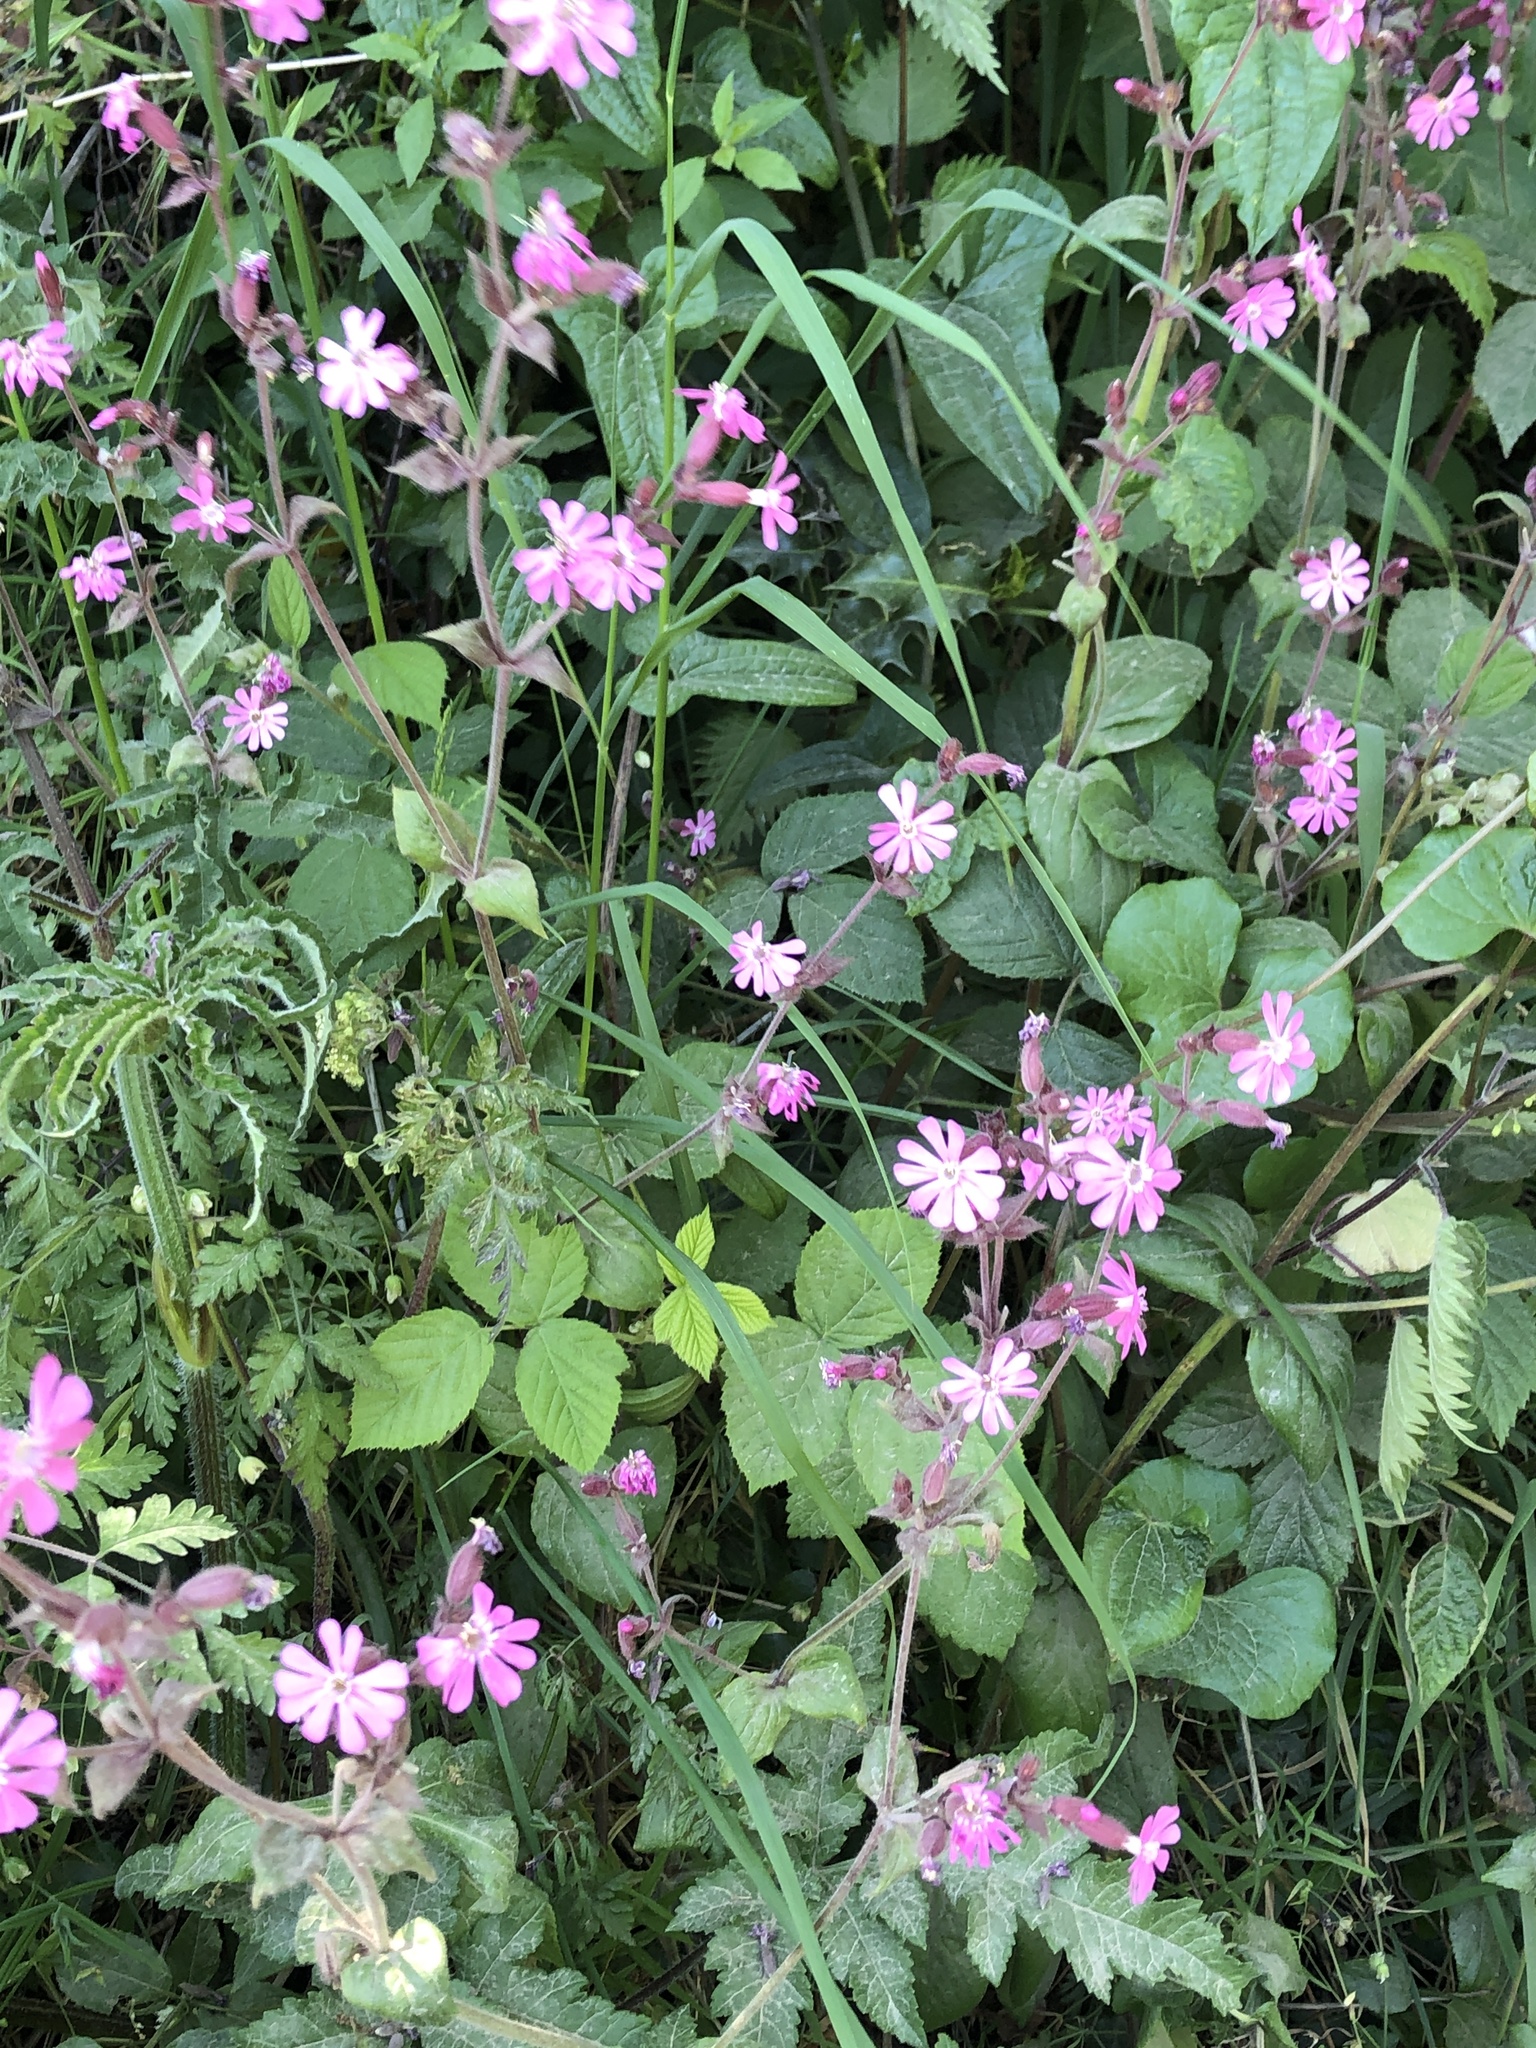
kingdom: Plantae
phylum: Tracheophyta
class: Magnoliopsida
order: Caryophyllales
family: Caryophyllaceae
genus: Silene
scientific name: Silene dioica
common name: Red campion
